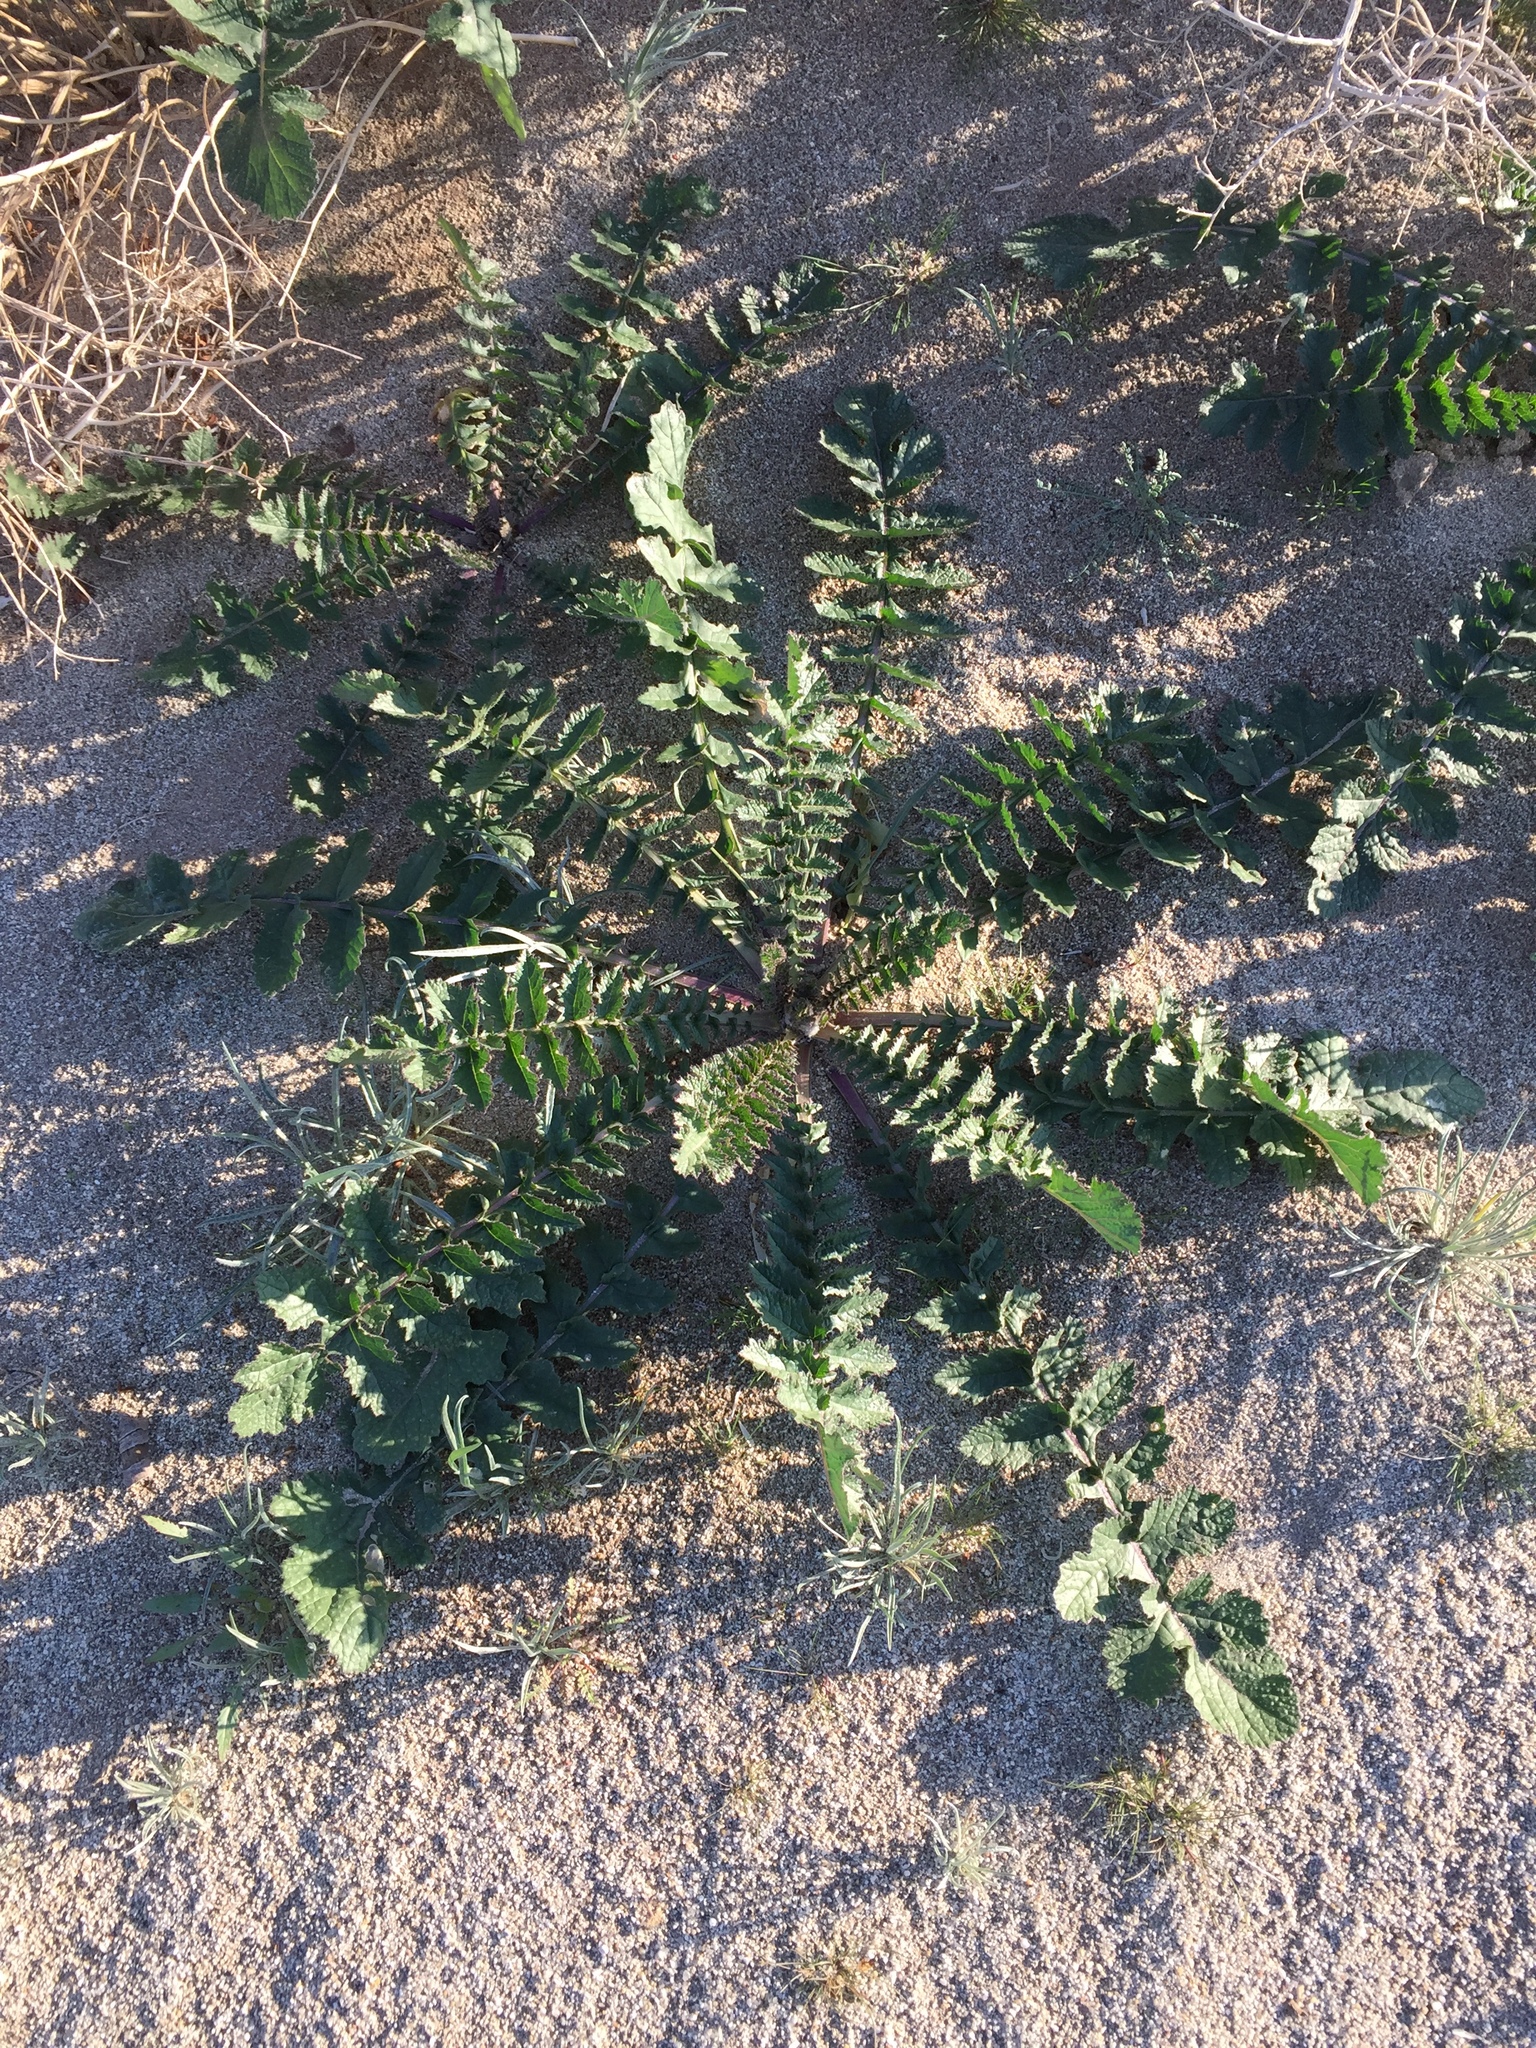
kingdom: Plantae
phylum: Tracheophyta
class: Magnoliopsida
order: Brassicales
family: Brassicaceae
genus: Brassica
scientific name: Brassica tournefortii
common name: Pale cabbage
